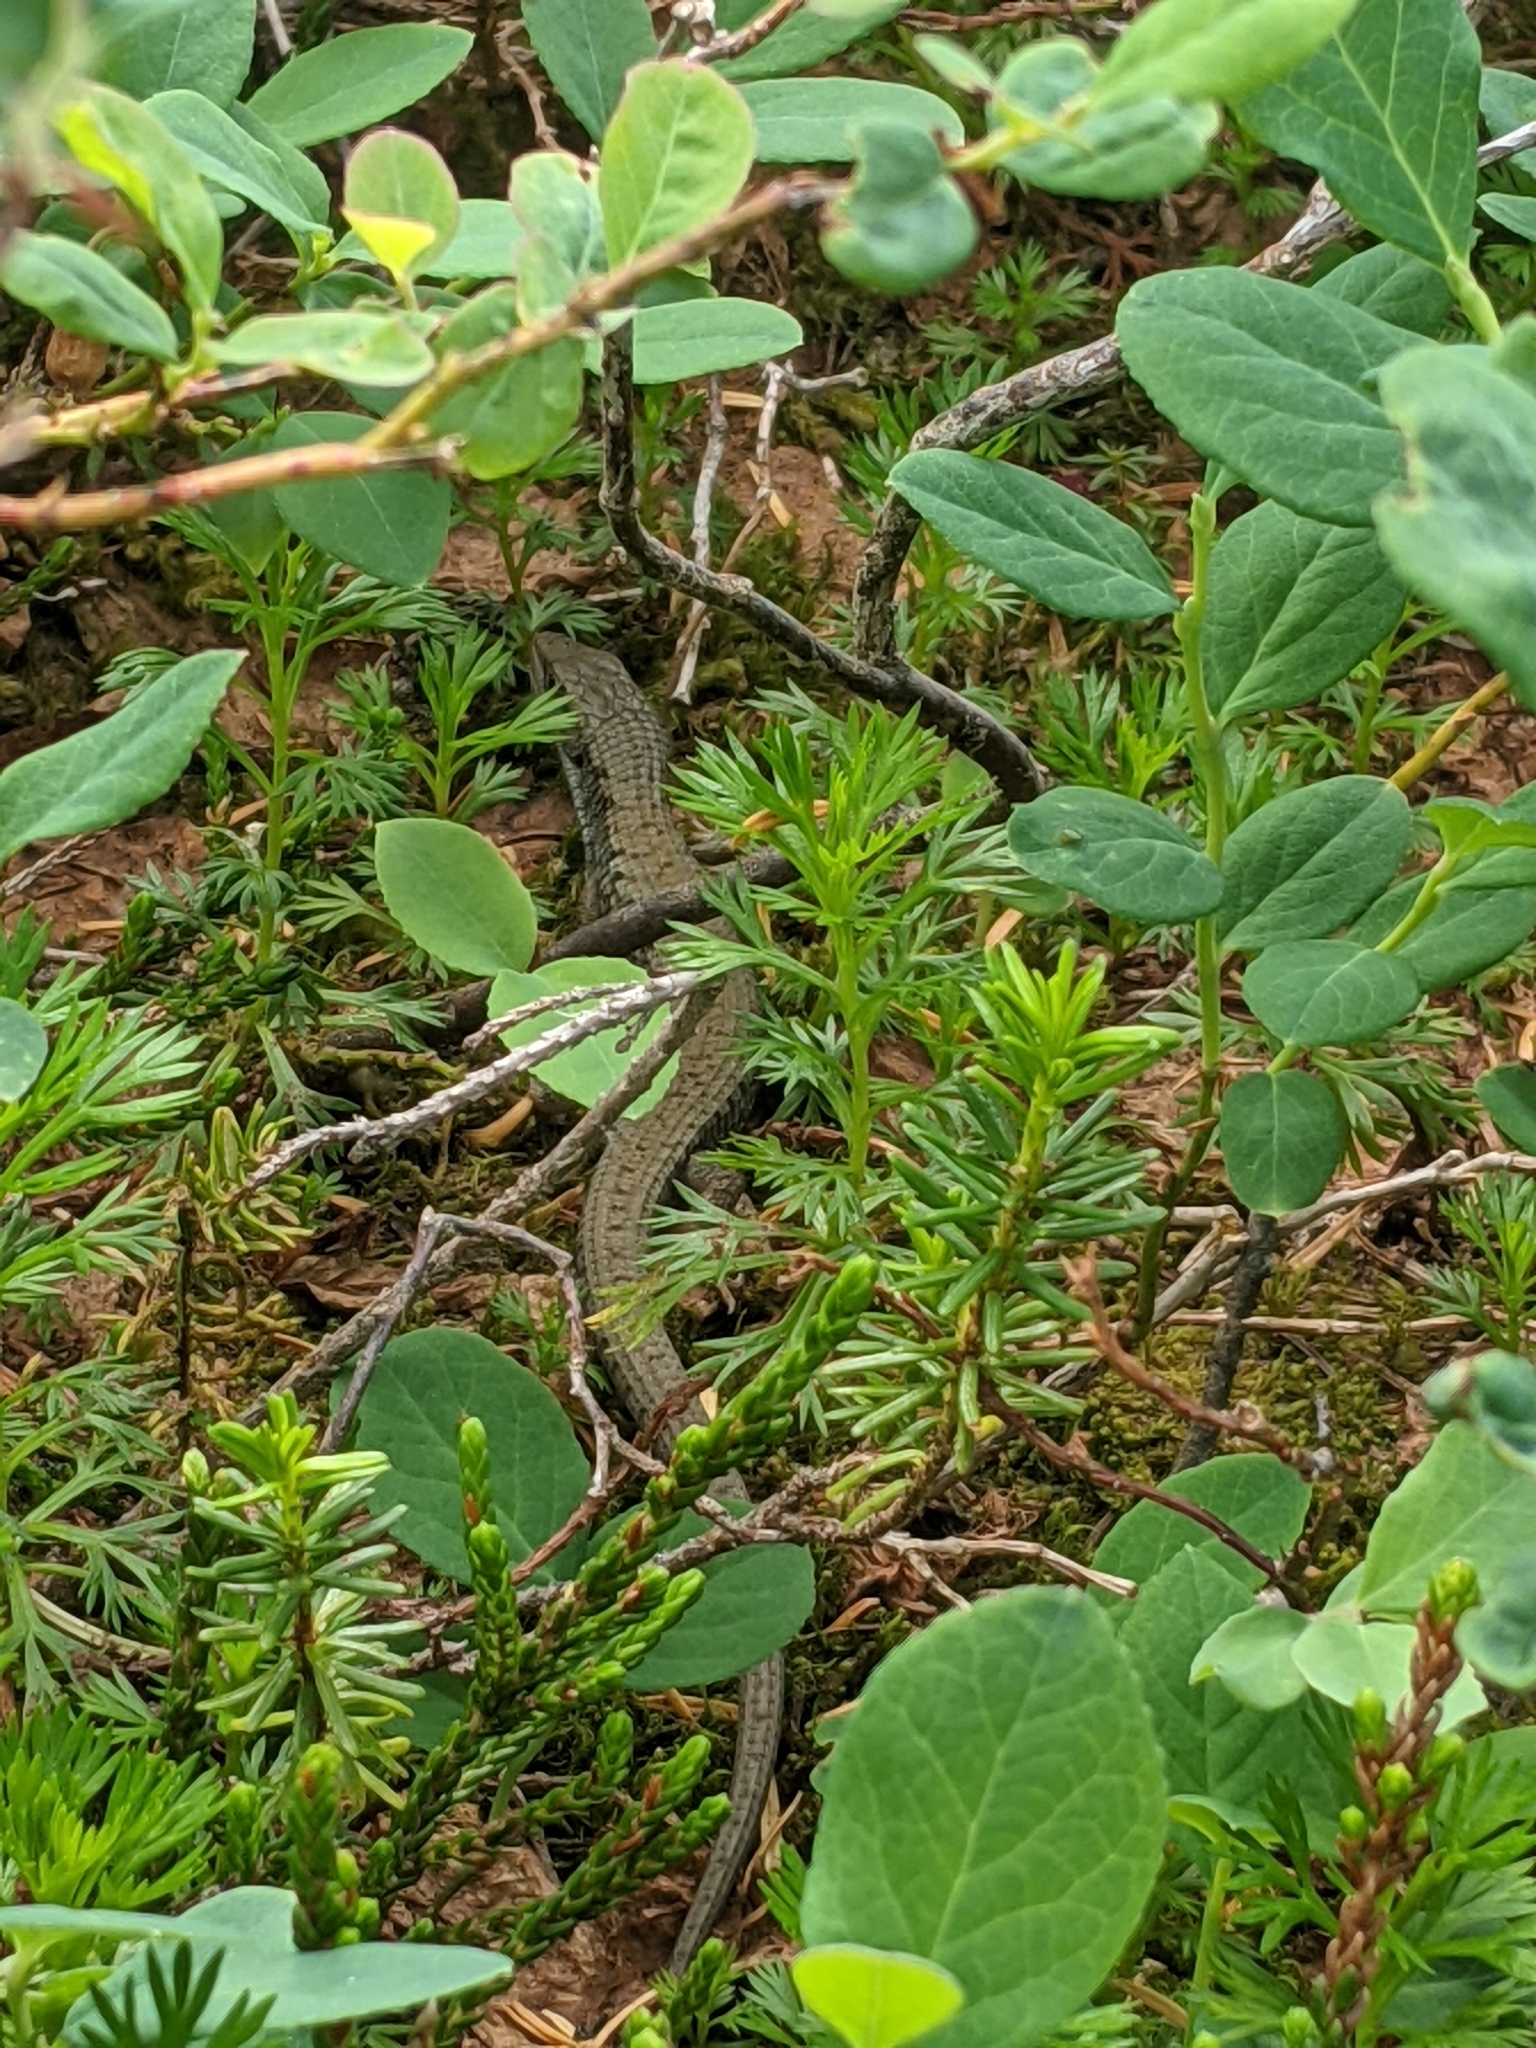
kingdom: Animalia
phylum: Chordata
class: Squamata
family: Anguidae
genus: Elgaria
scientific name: Elgaria coerulea
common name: Northern alligator lizard
